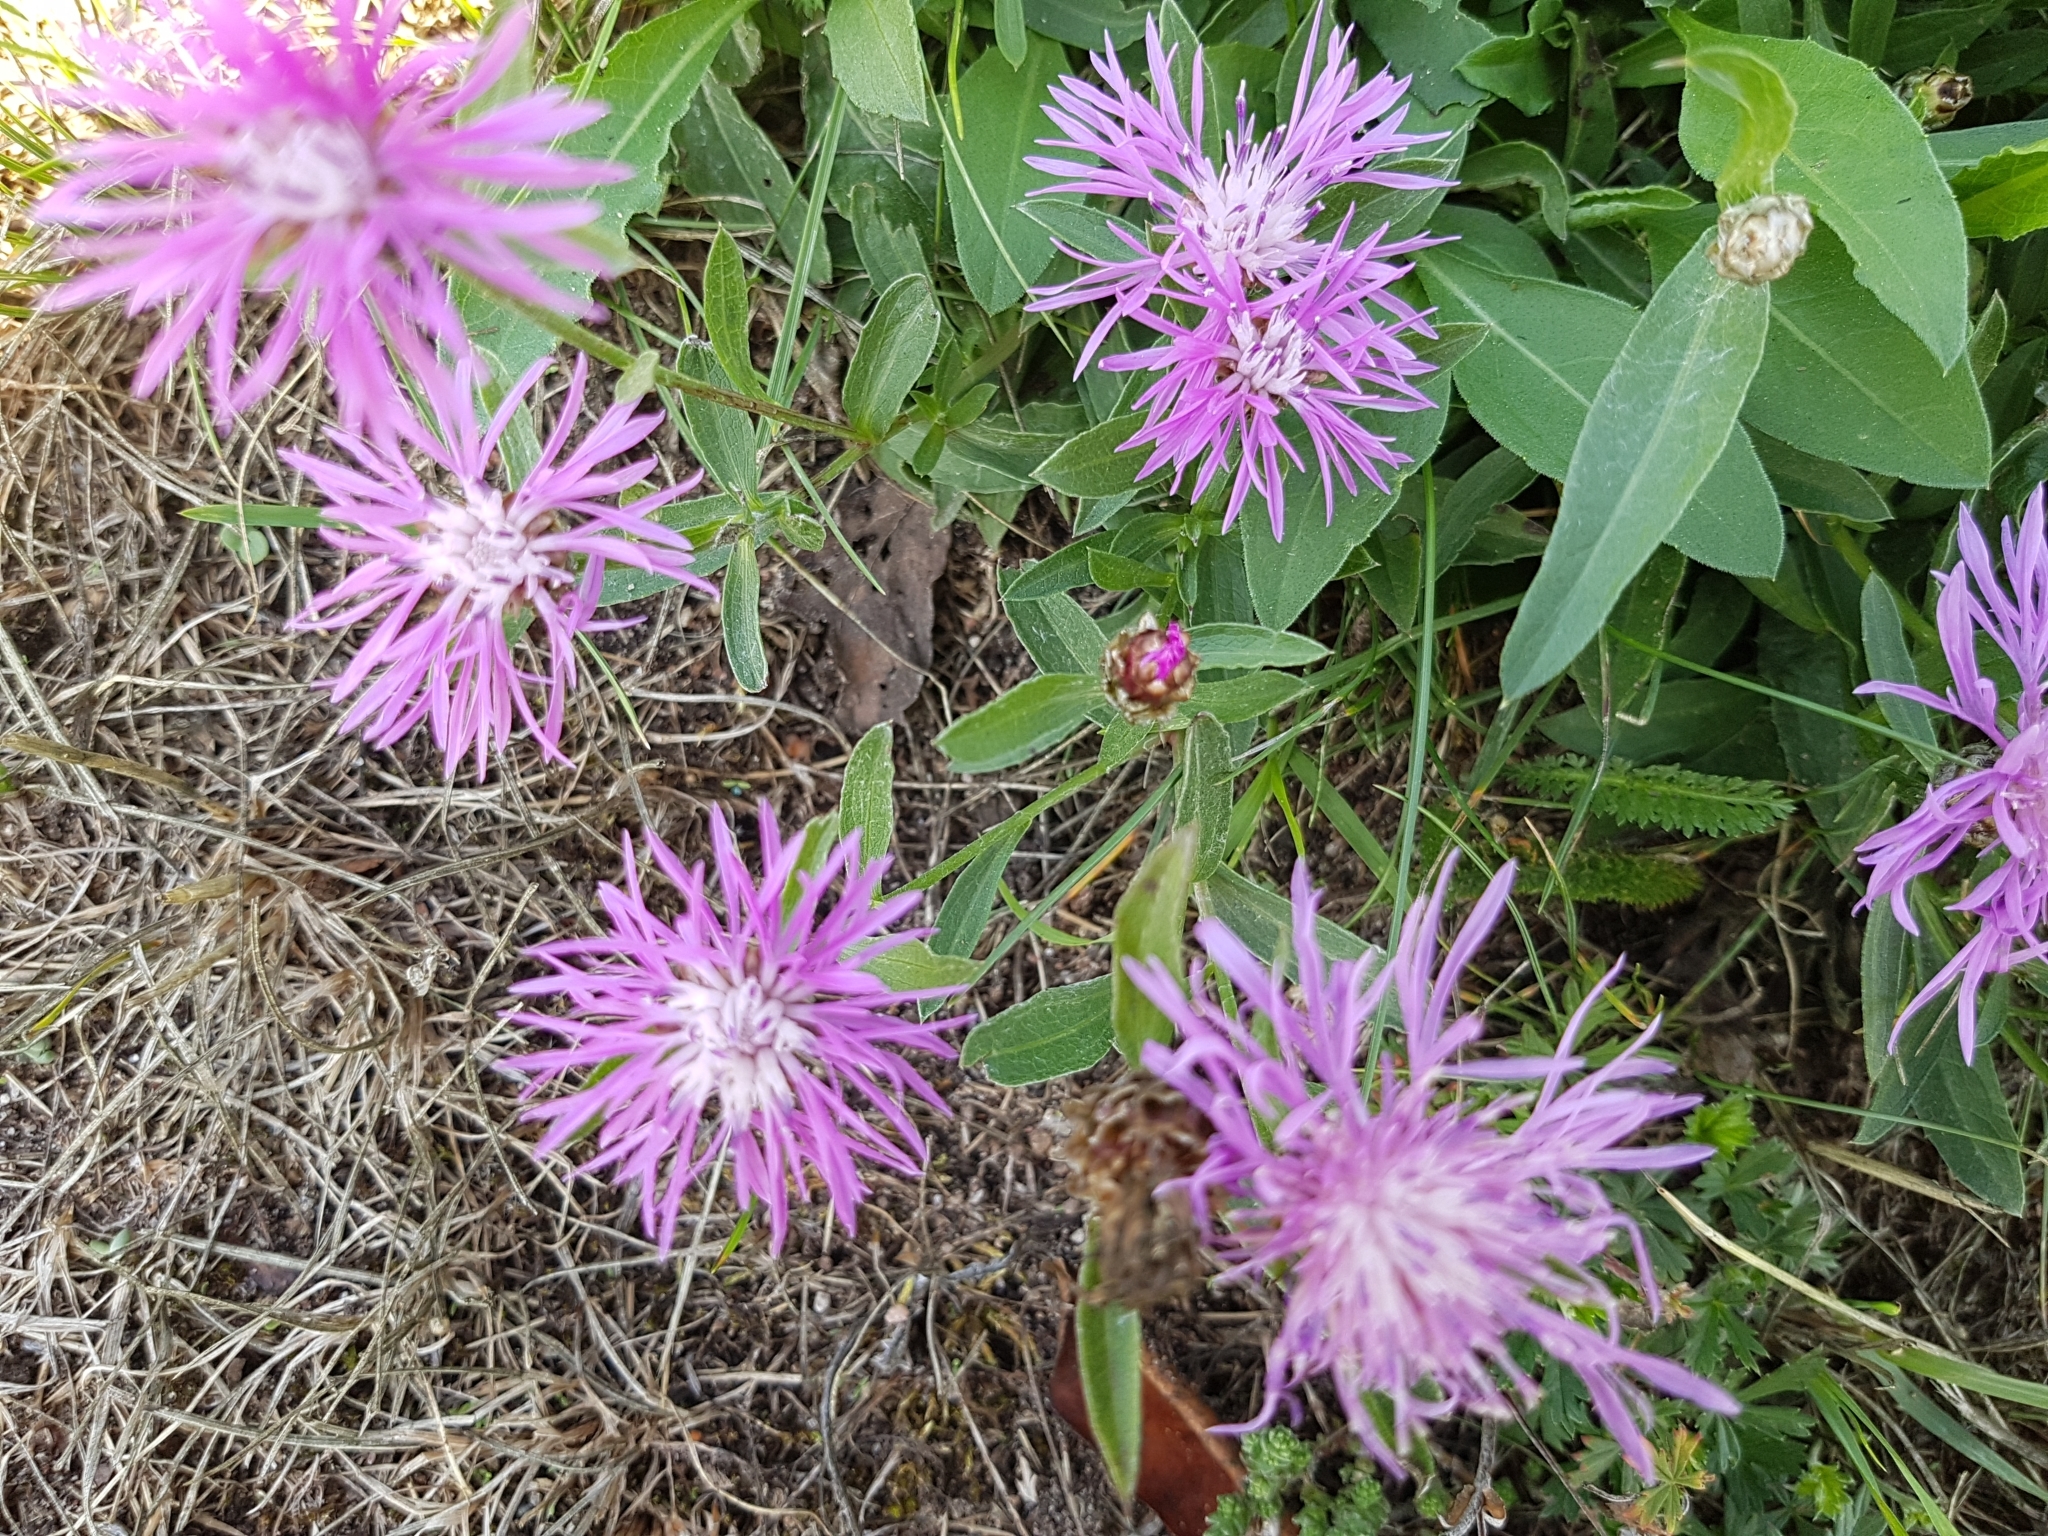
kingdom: Plantae
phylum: Tracheophyta
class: Magnoliopsida
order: Asterales
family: Asteraceae
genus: Centaurea
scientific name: Centaurea jacea
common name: Brown knapweed
